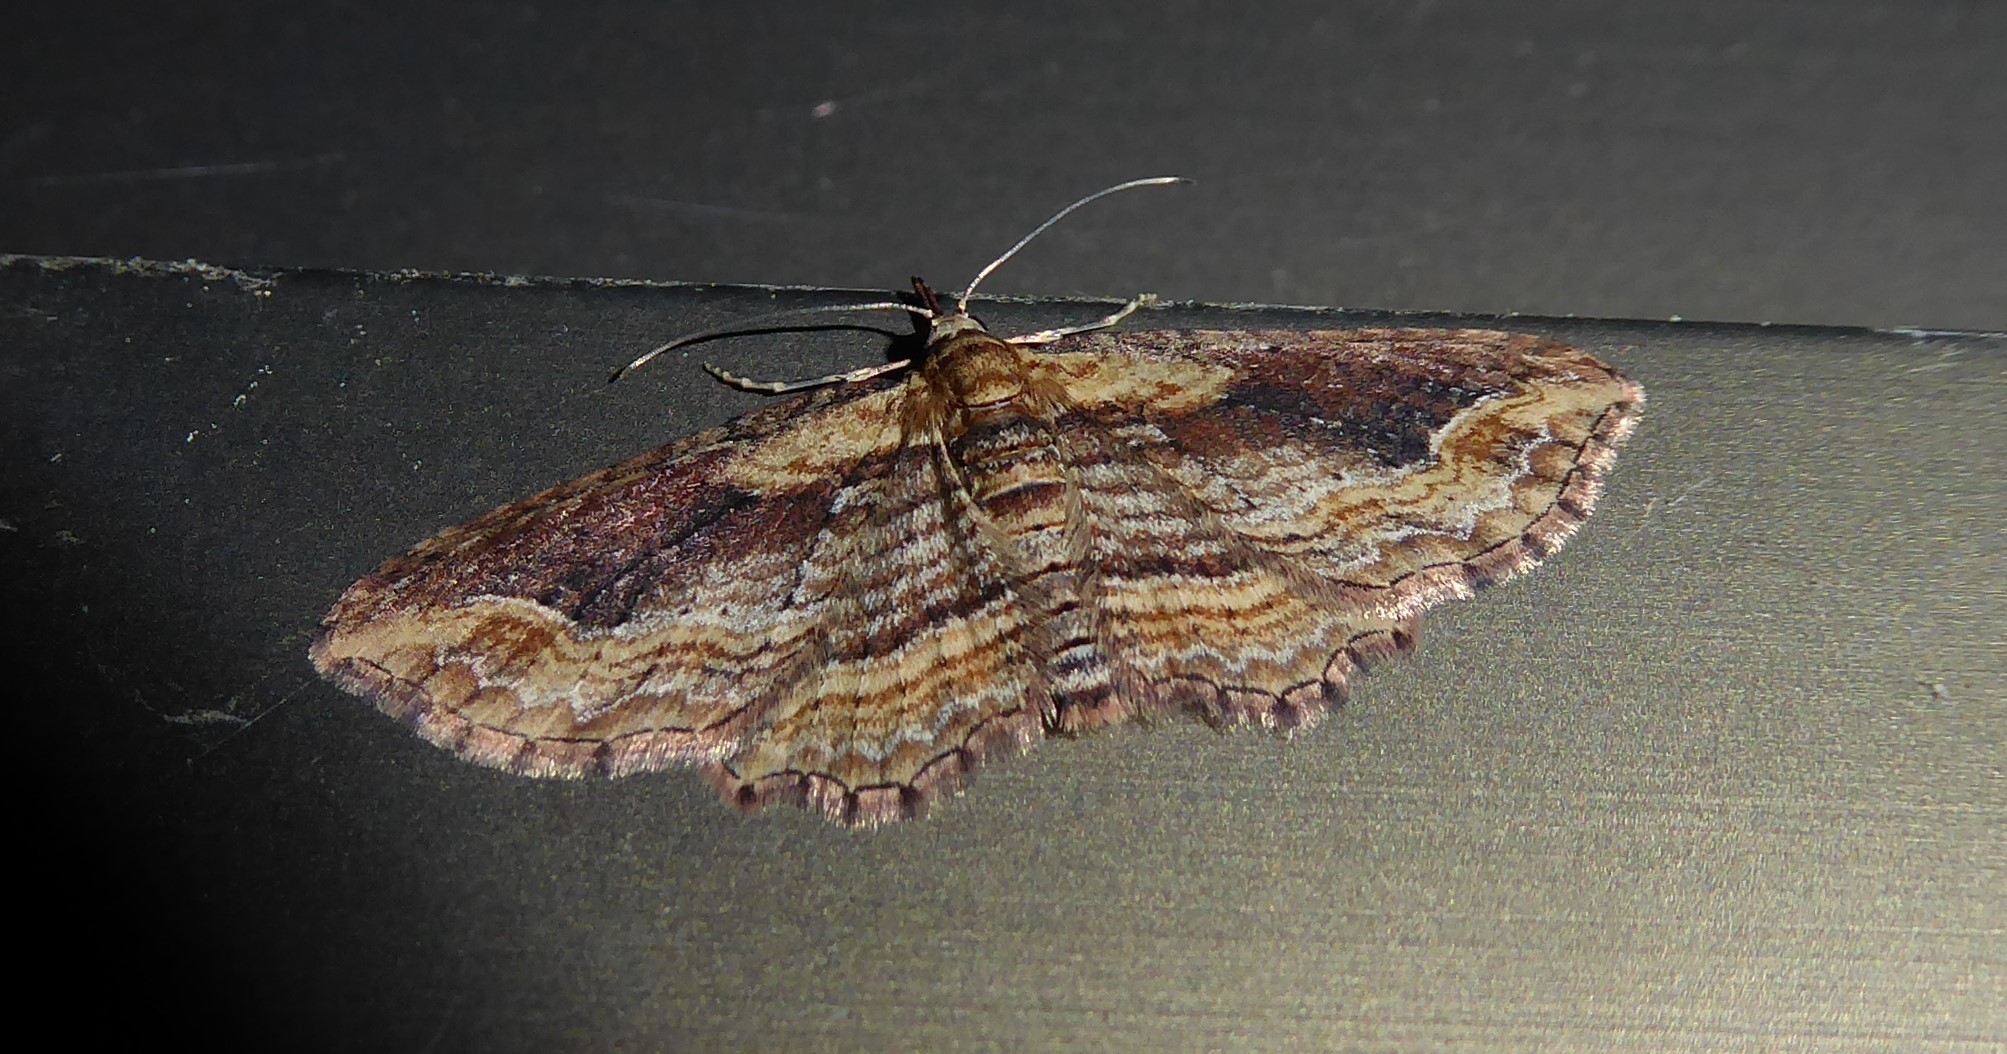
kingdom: Animalia
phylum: Arthropoda
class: Insecta
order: Lepidoptera
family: Geometridae
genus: Chloroclystis
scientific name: Chloroclystis filata
